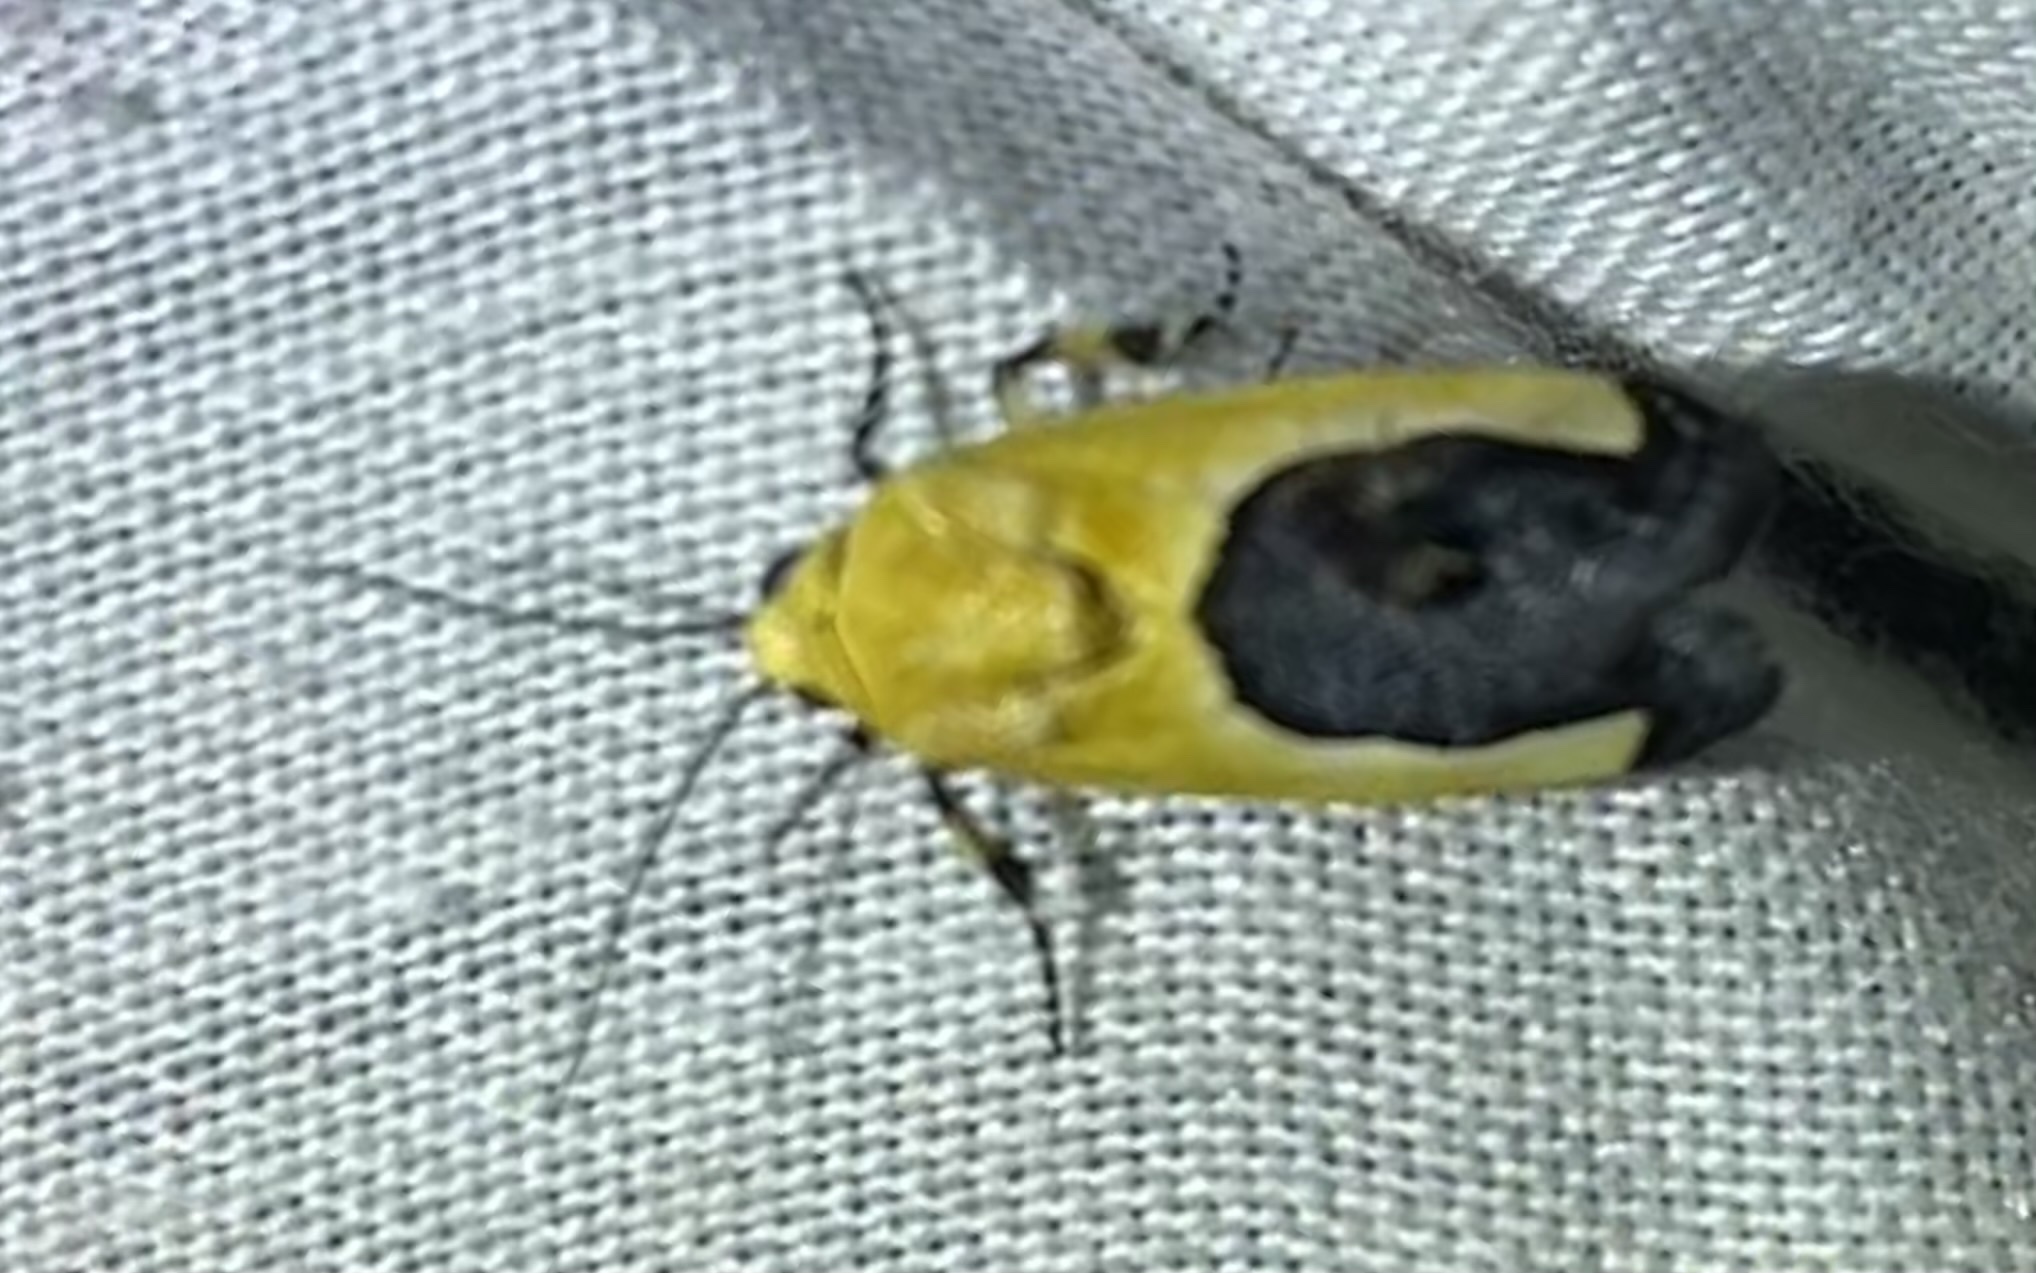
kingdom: Animalia
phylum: Arthropoda
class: Insecta
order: Lepidoptera
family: Noctuidae
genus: Acontia
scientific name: Acontia guttifera
